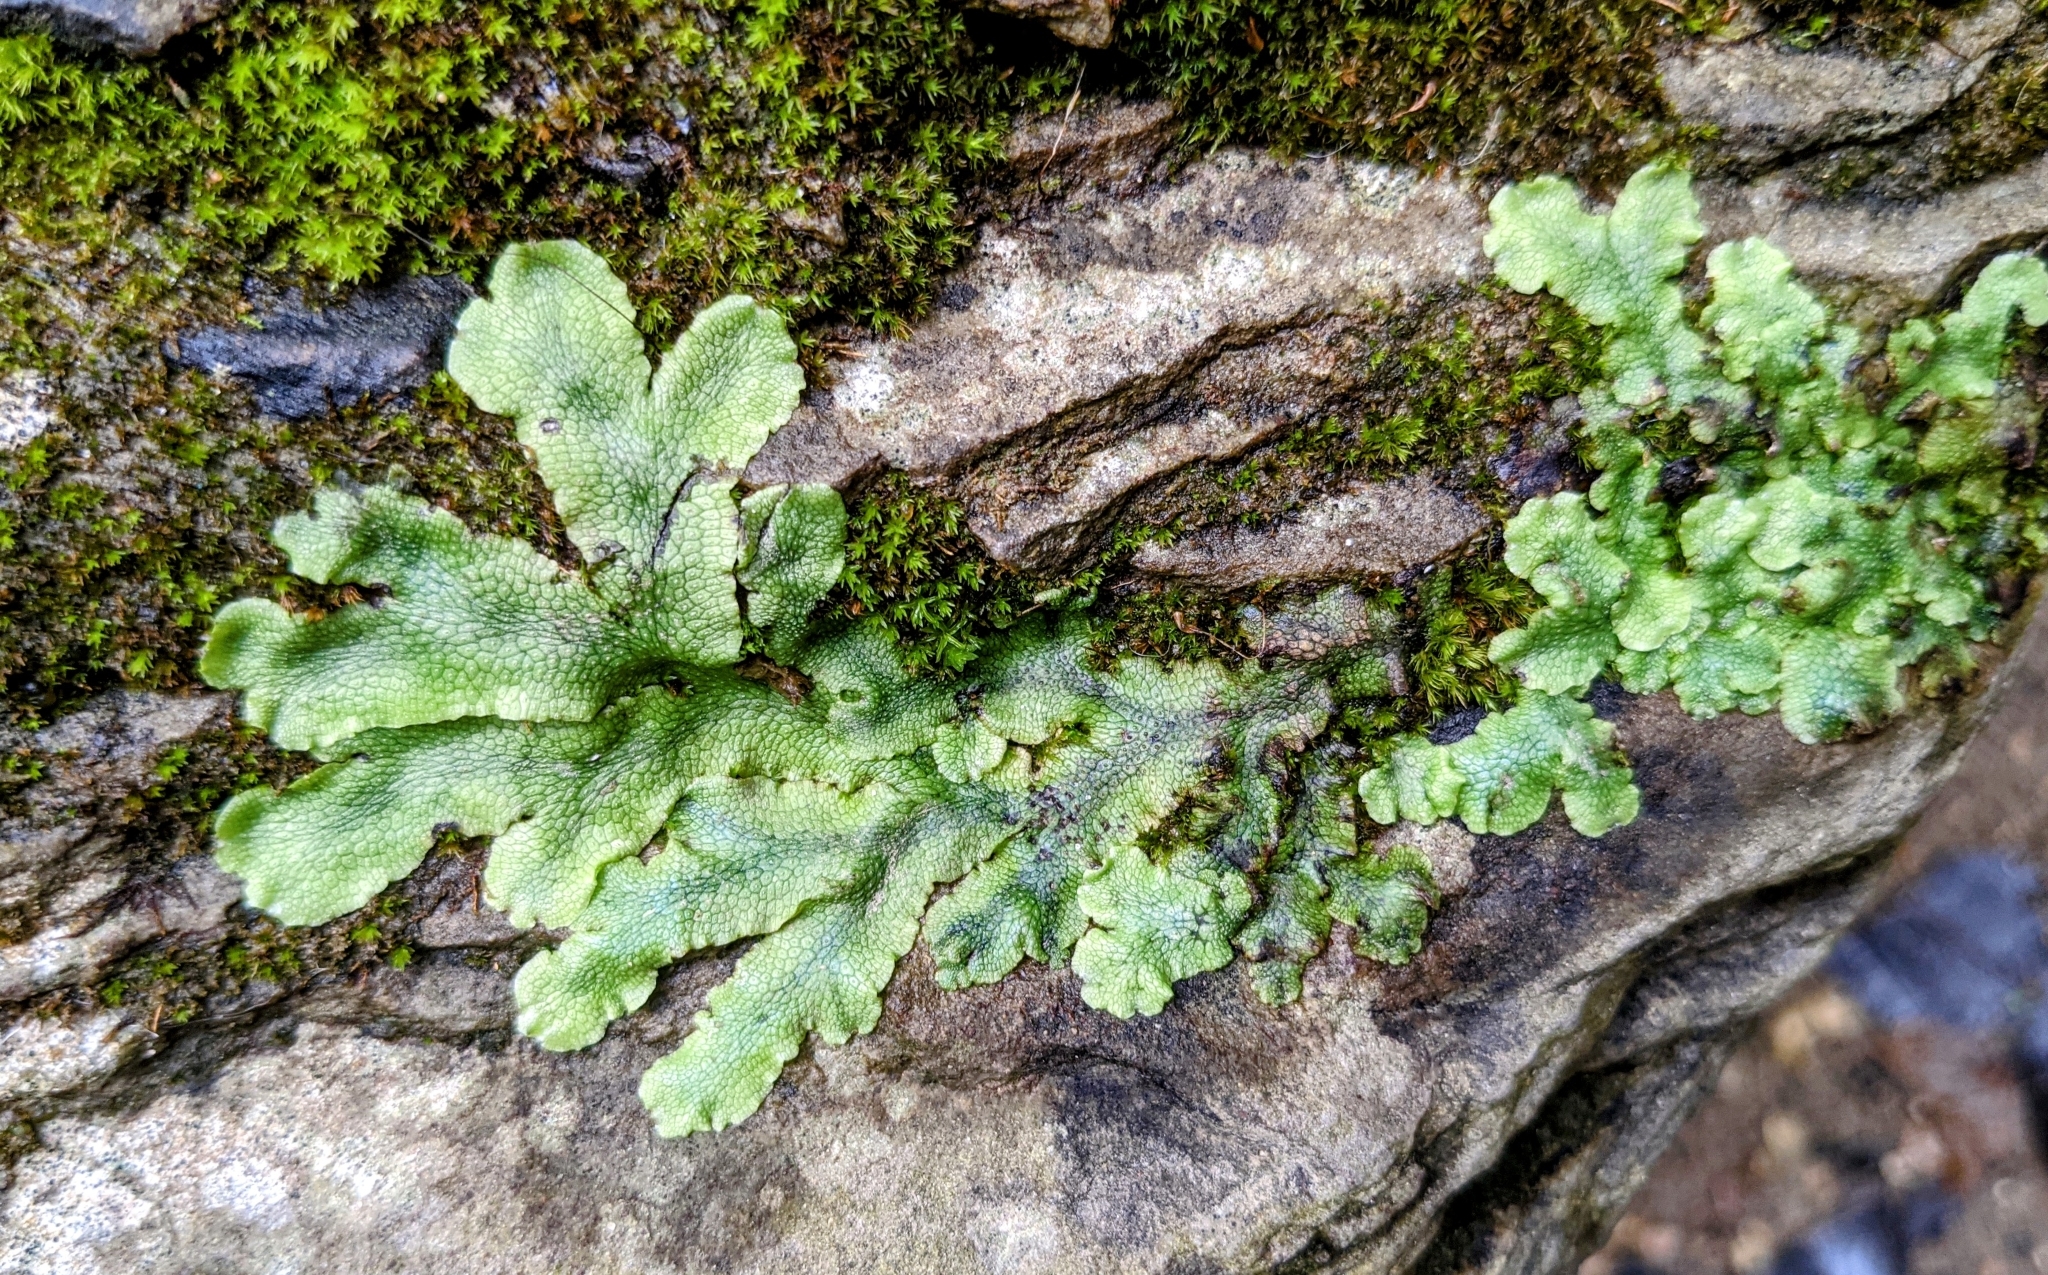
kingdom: Plantae
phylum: Marchantiophyta
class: Marchantiopsida
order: Marchantiales
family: Conocephalaceae
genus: Conocephalum
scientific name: Conocephalum salebrosum
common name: Cat-tongue liverwort
